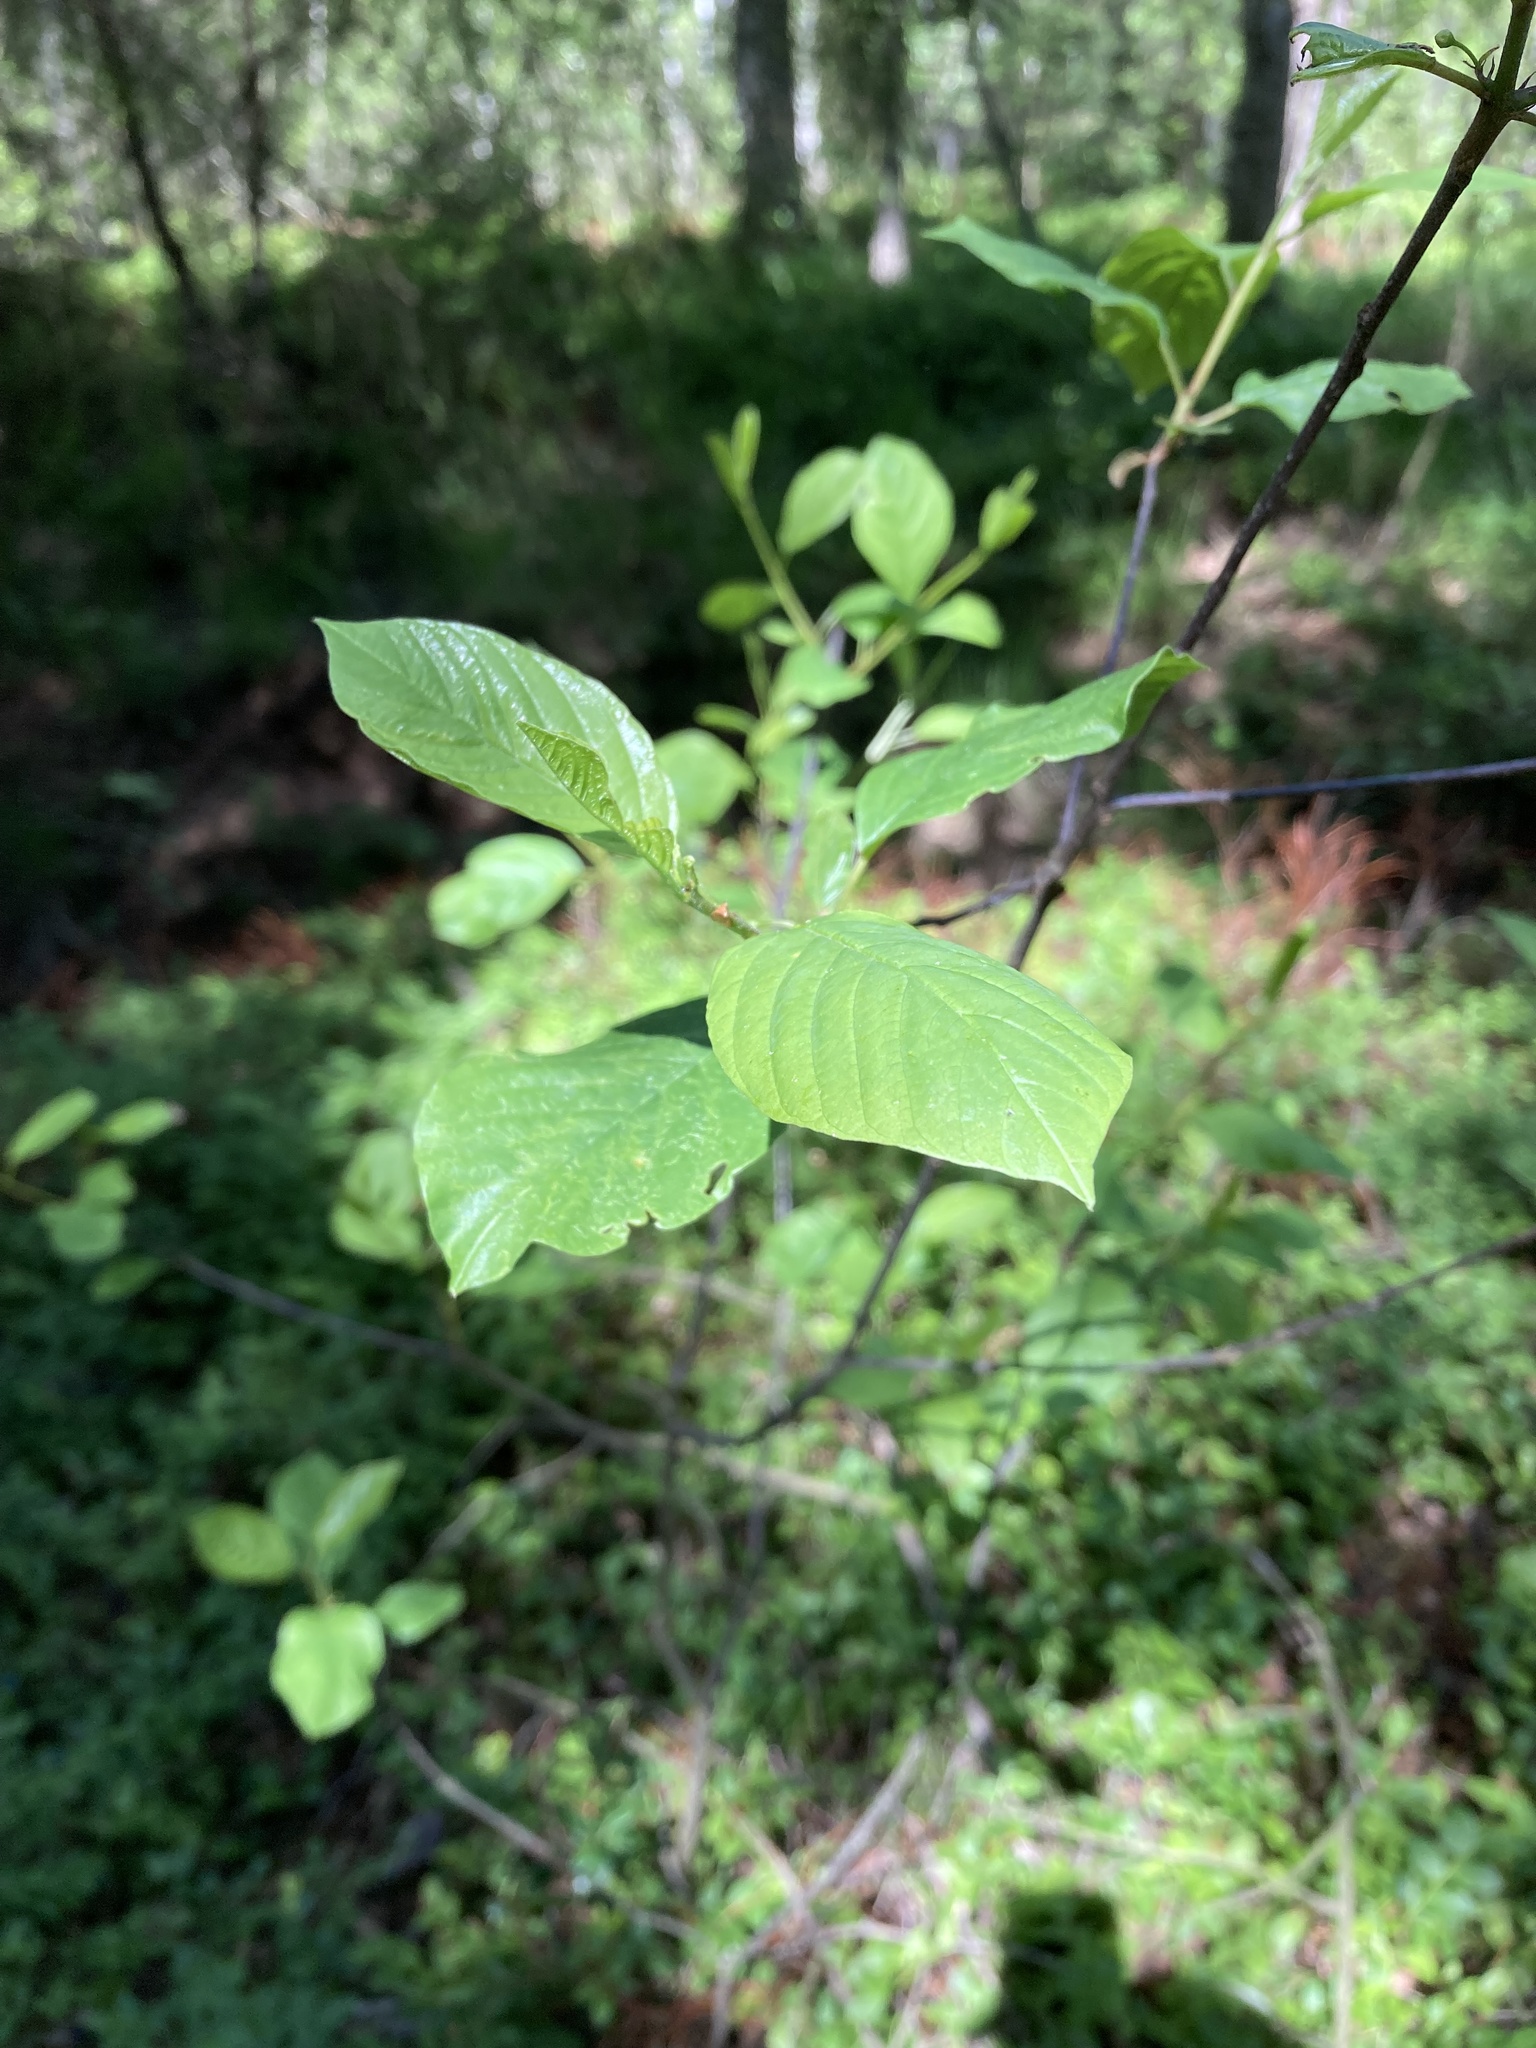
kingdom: Plantae
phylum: Tracheophyta
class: Magnoliopsida
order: Rosales
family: Rhamnaceae
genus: Frangula
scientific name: Frangula alnus
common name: Alder buckthorn
